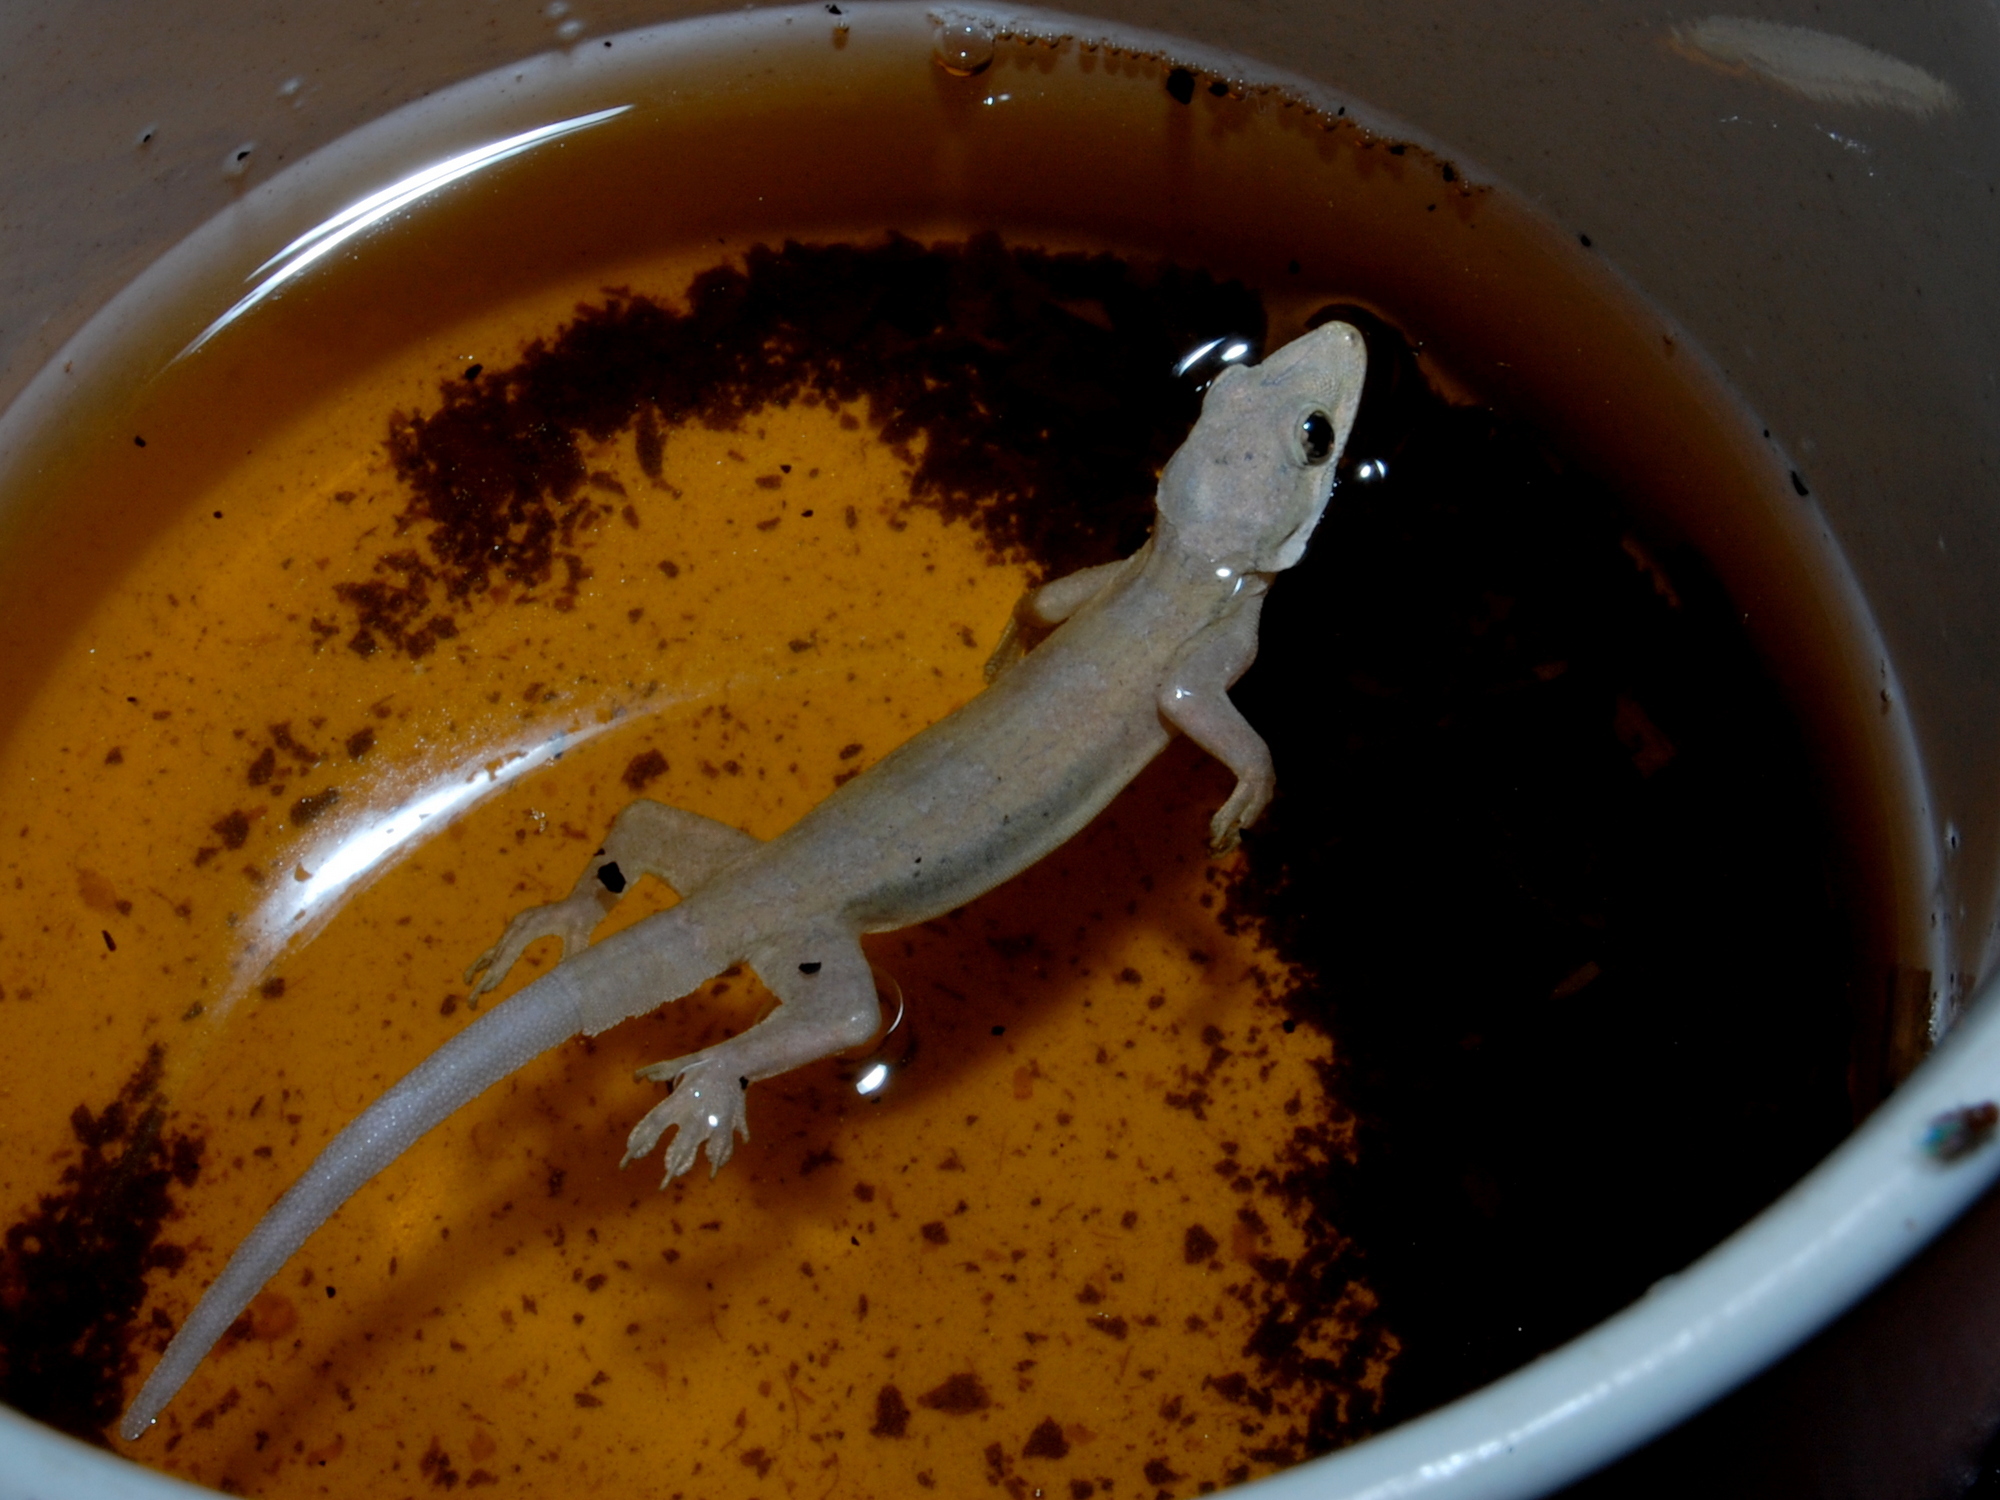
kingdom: Animalia
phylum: Chordata
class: Squamata
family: Gekkonidae
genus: Hemidactylus
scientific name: Hemidactylus platyurus
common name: Flat-tailed house gecko
